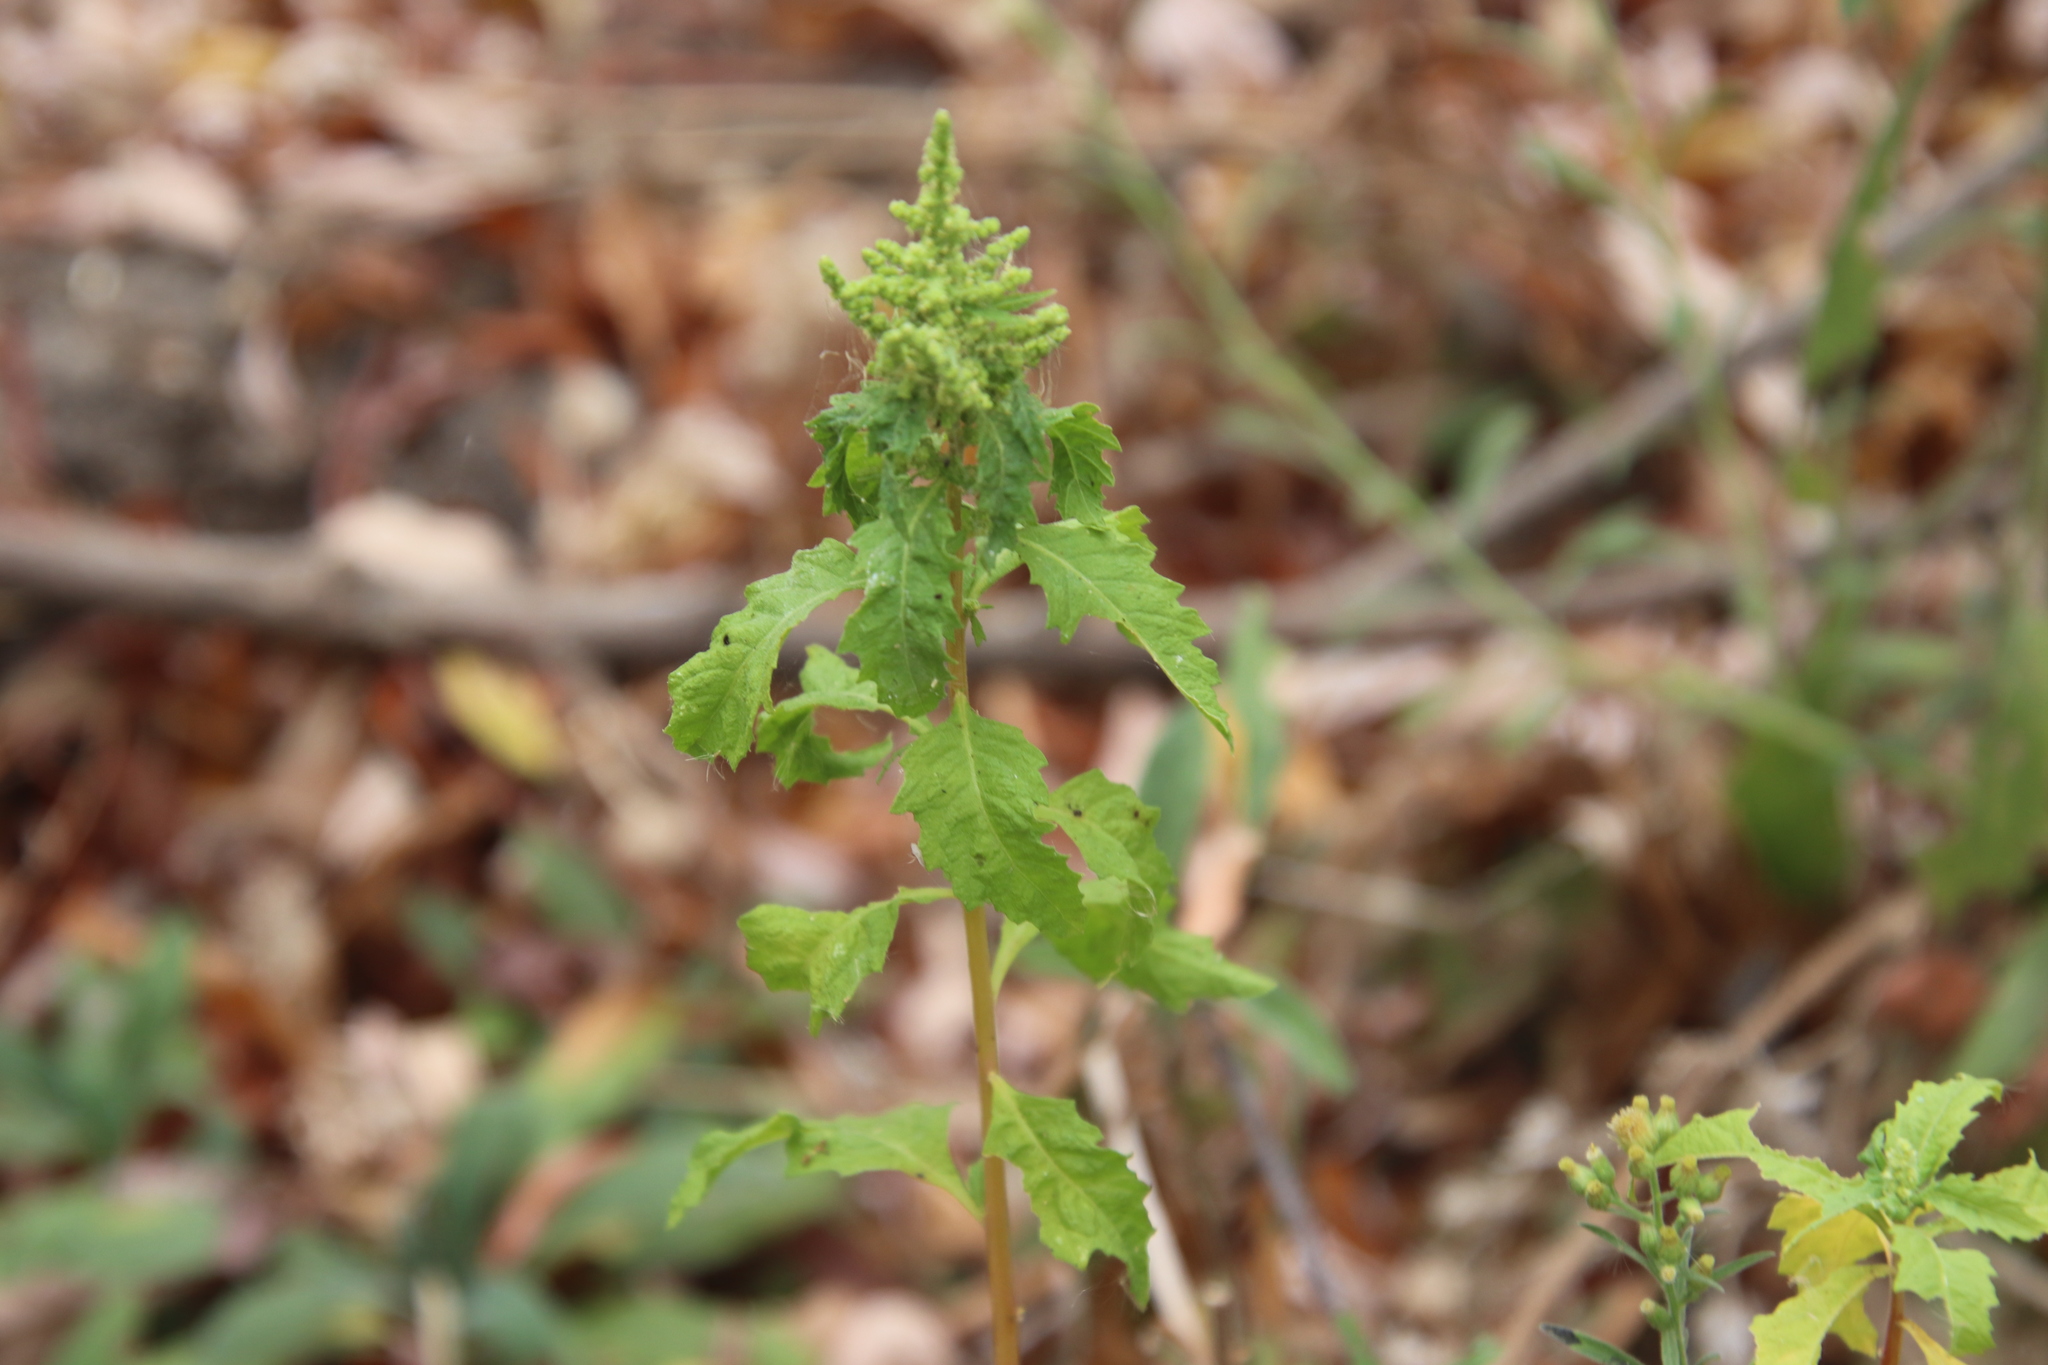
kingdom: Plantae
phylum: Tracheophyta
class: Magnoliopsida
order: Caryophyllales
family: Amaranthaceae
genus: Dysphania
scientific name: Dysphania ambrosioides
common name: Wormseed
